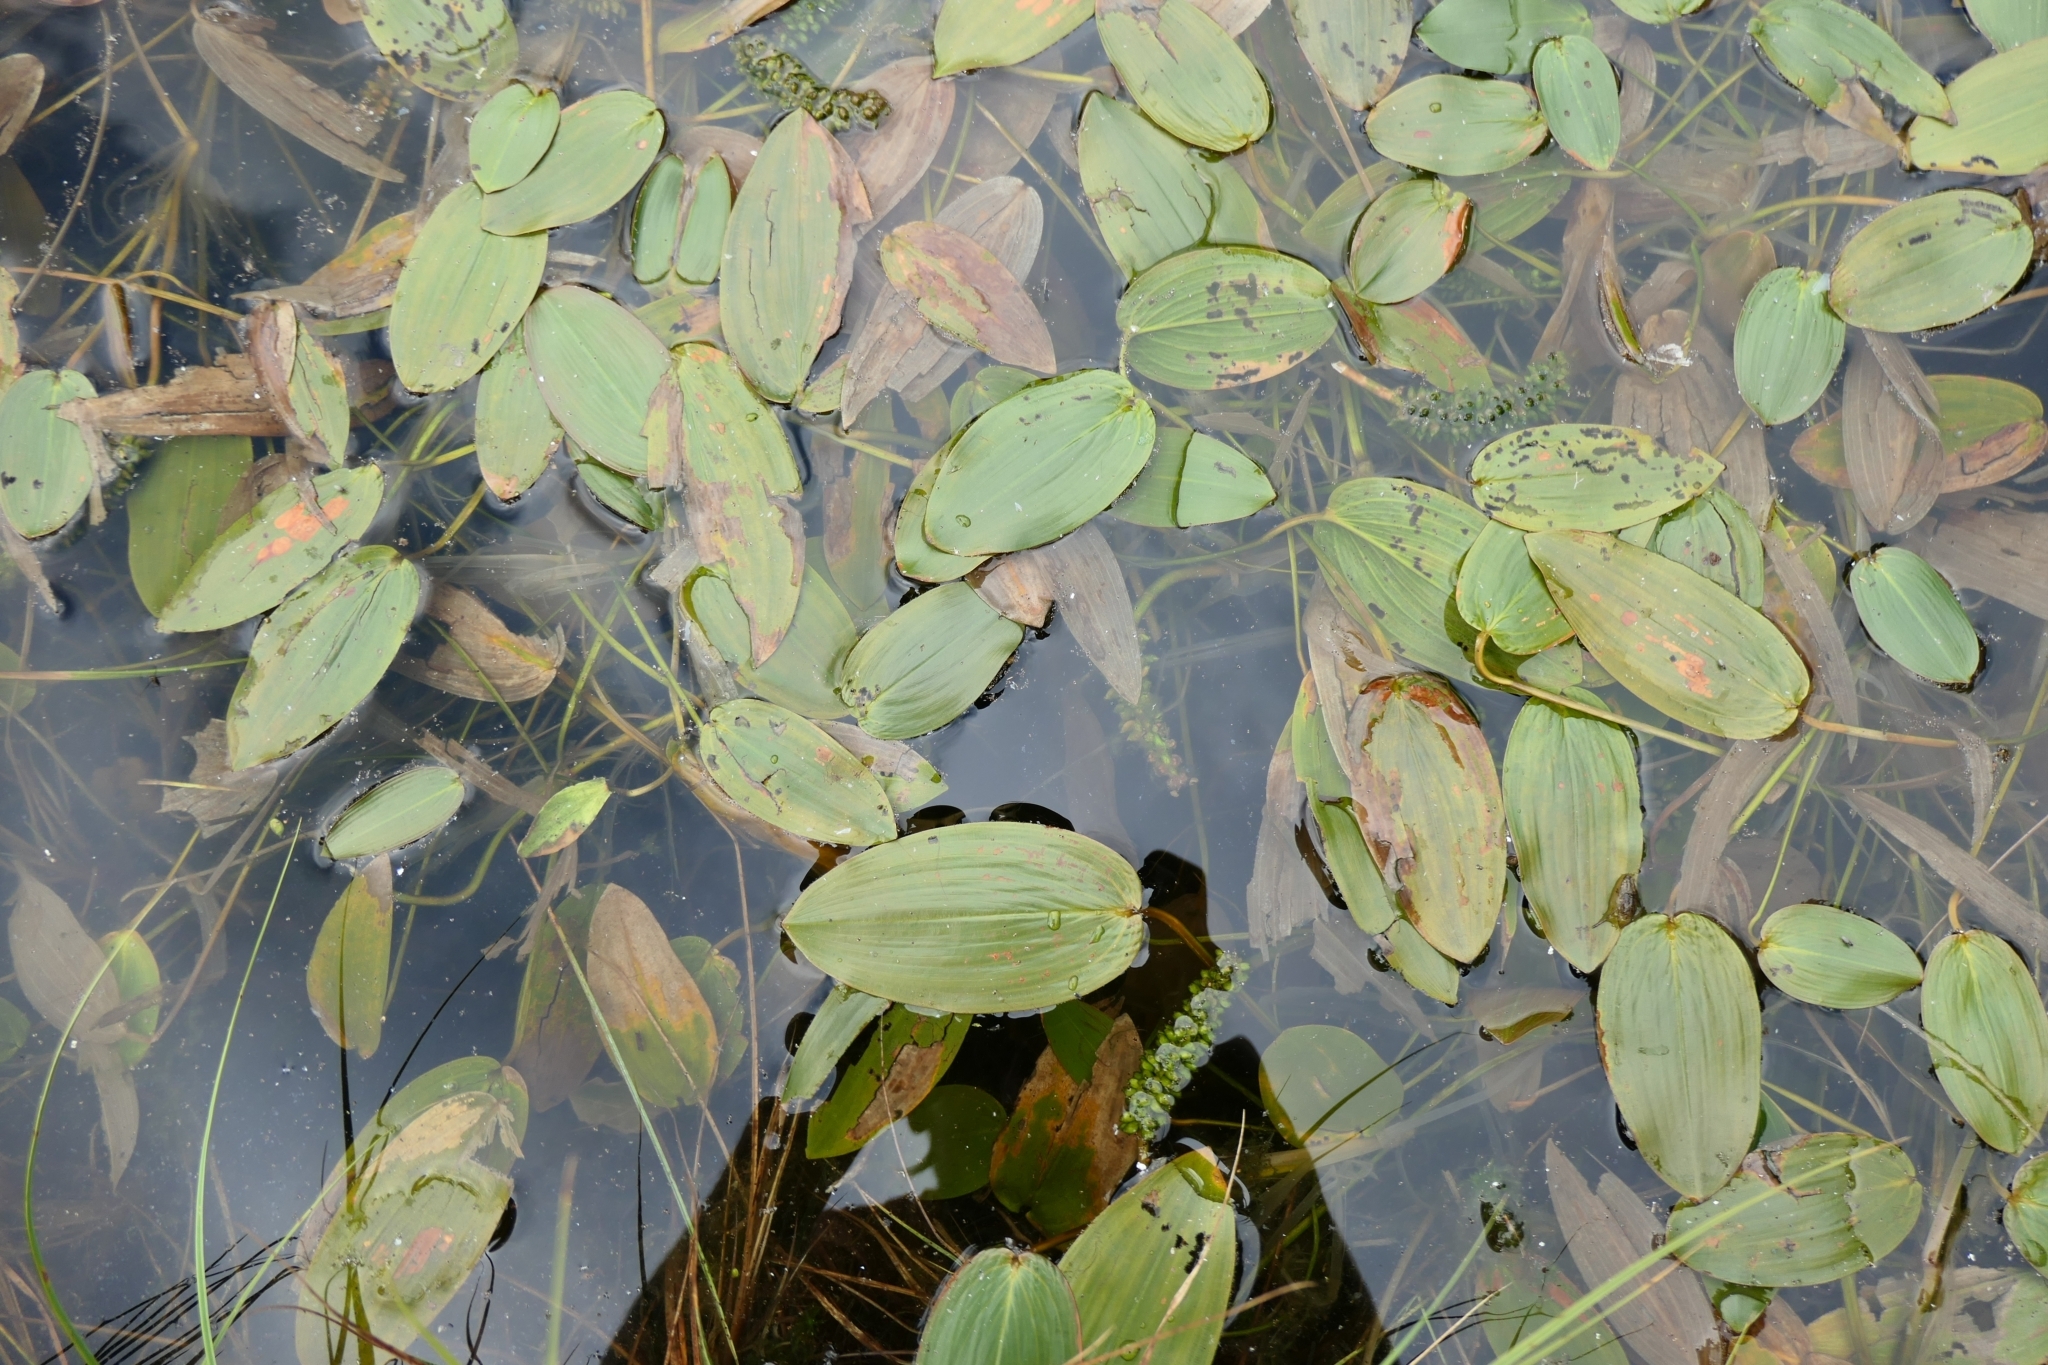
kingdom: Plantae
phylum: Tracheophyta
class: Liliopsida
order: Alismatales
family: Potamogetonaceae
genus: Potamogeton
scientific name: Potamogeton natans
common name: Broad-leaved pondweed
